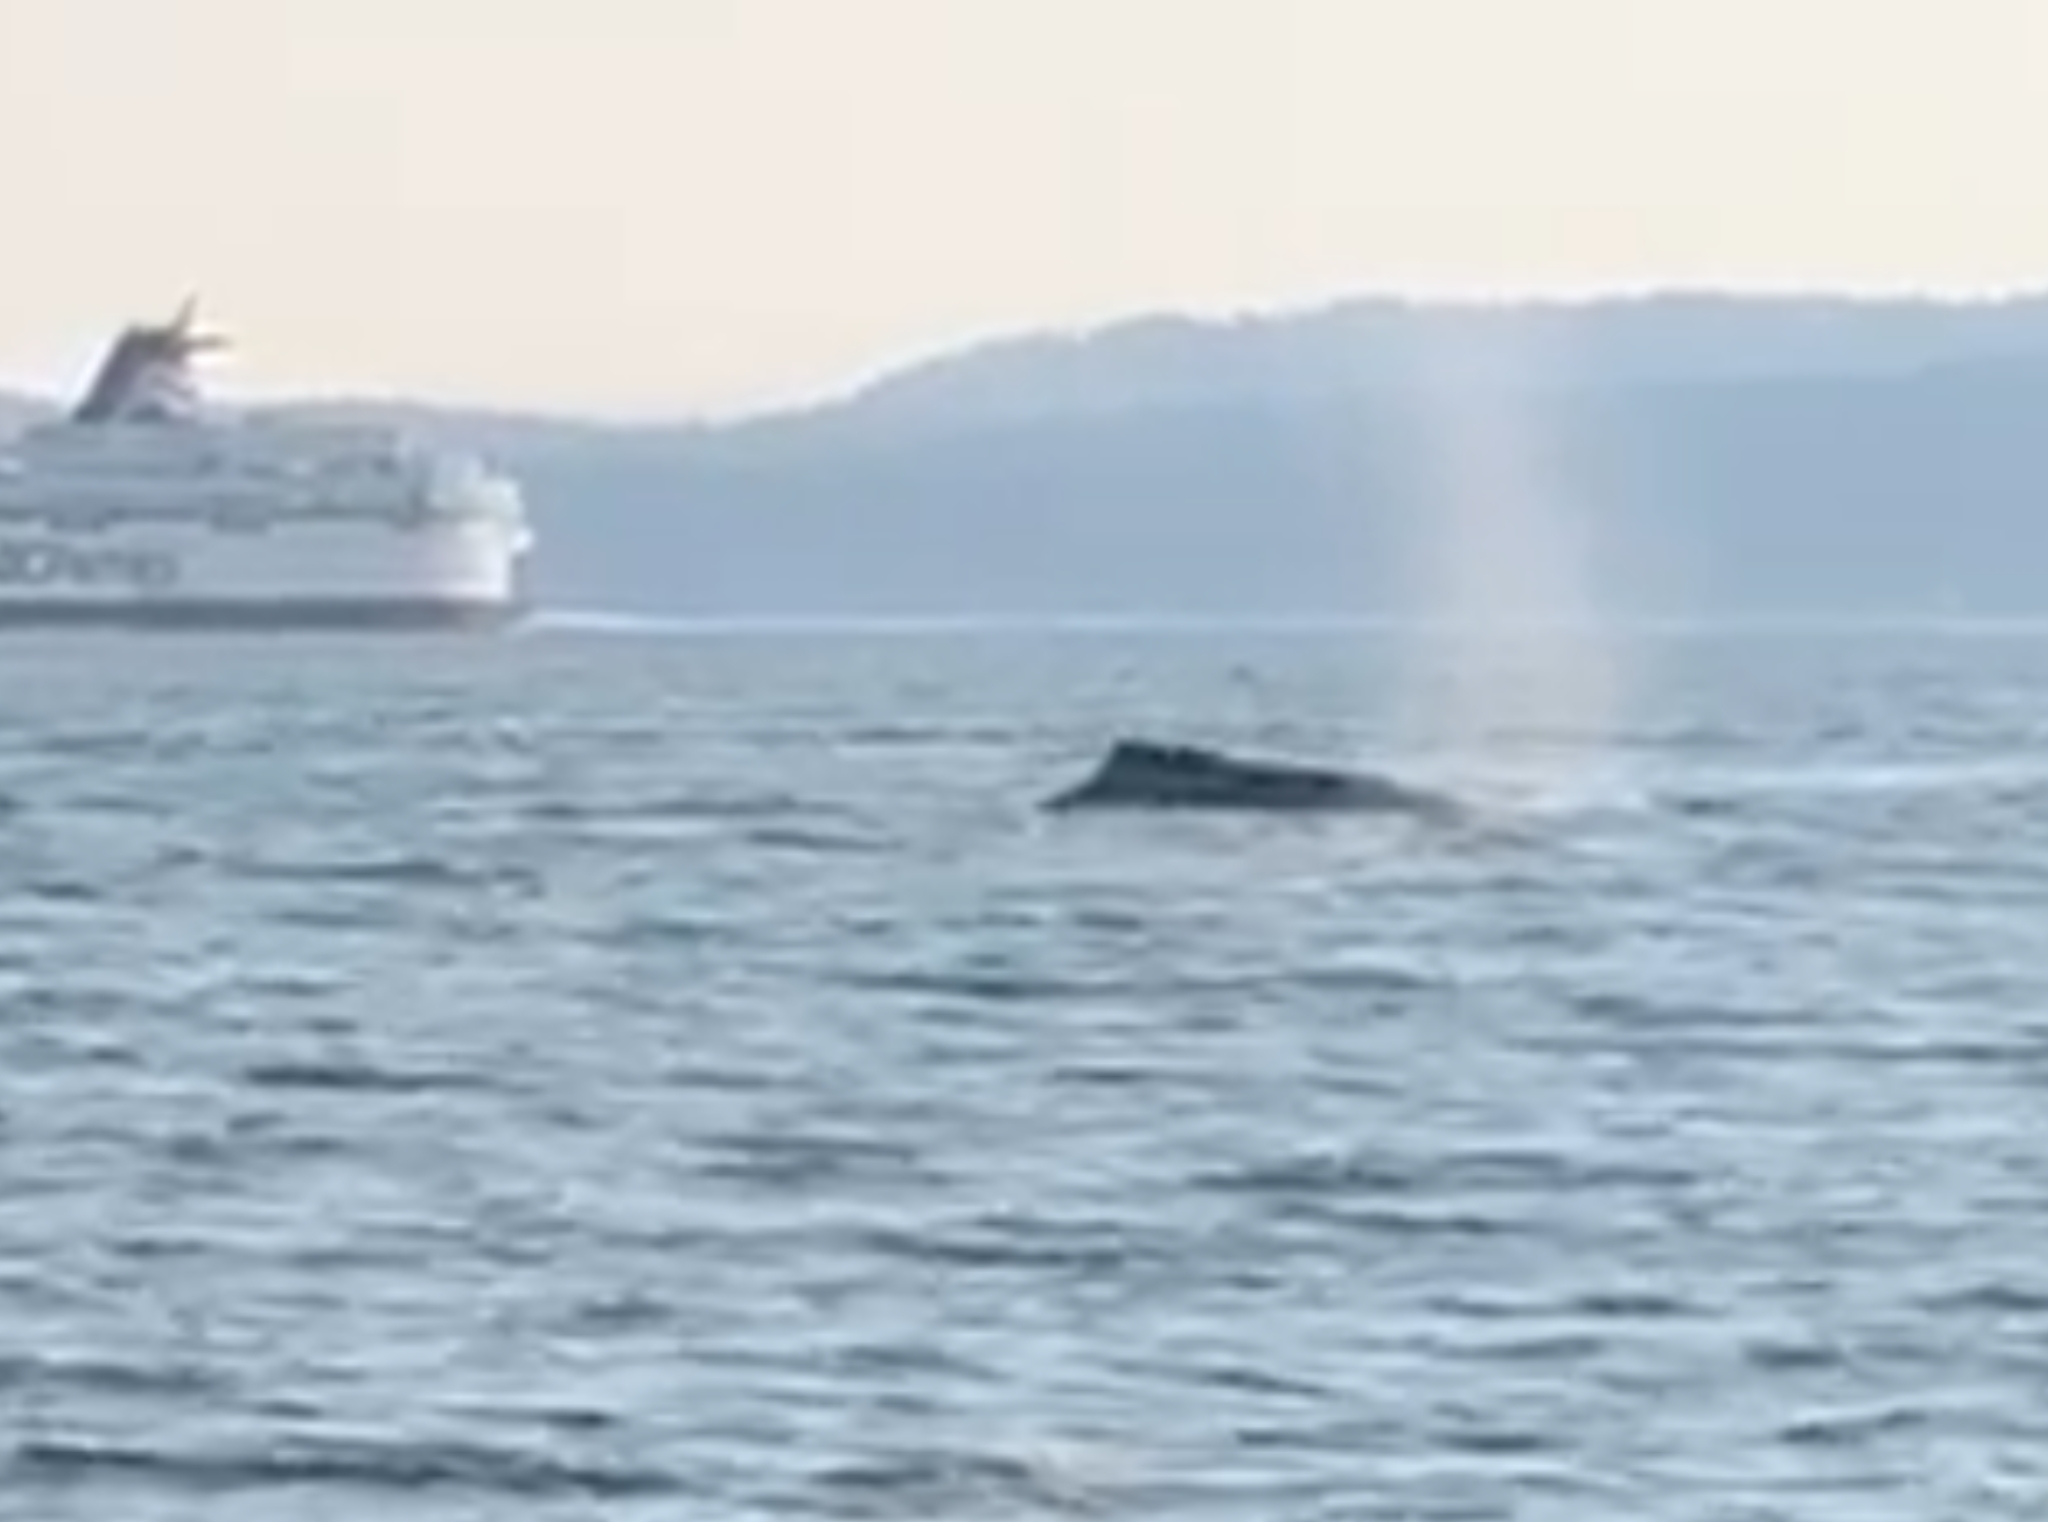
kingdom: Animalia
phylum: Chordata
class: Mammalia
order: Cetacea
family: Balaenopteridae
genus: Megaptera
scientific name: Megaptera novaeangliae
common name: Humpback whale
